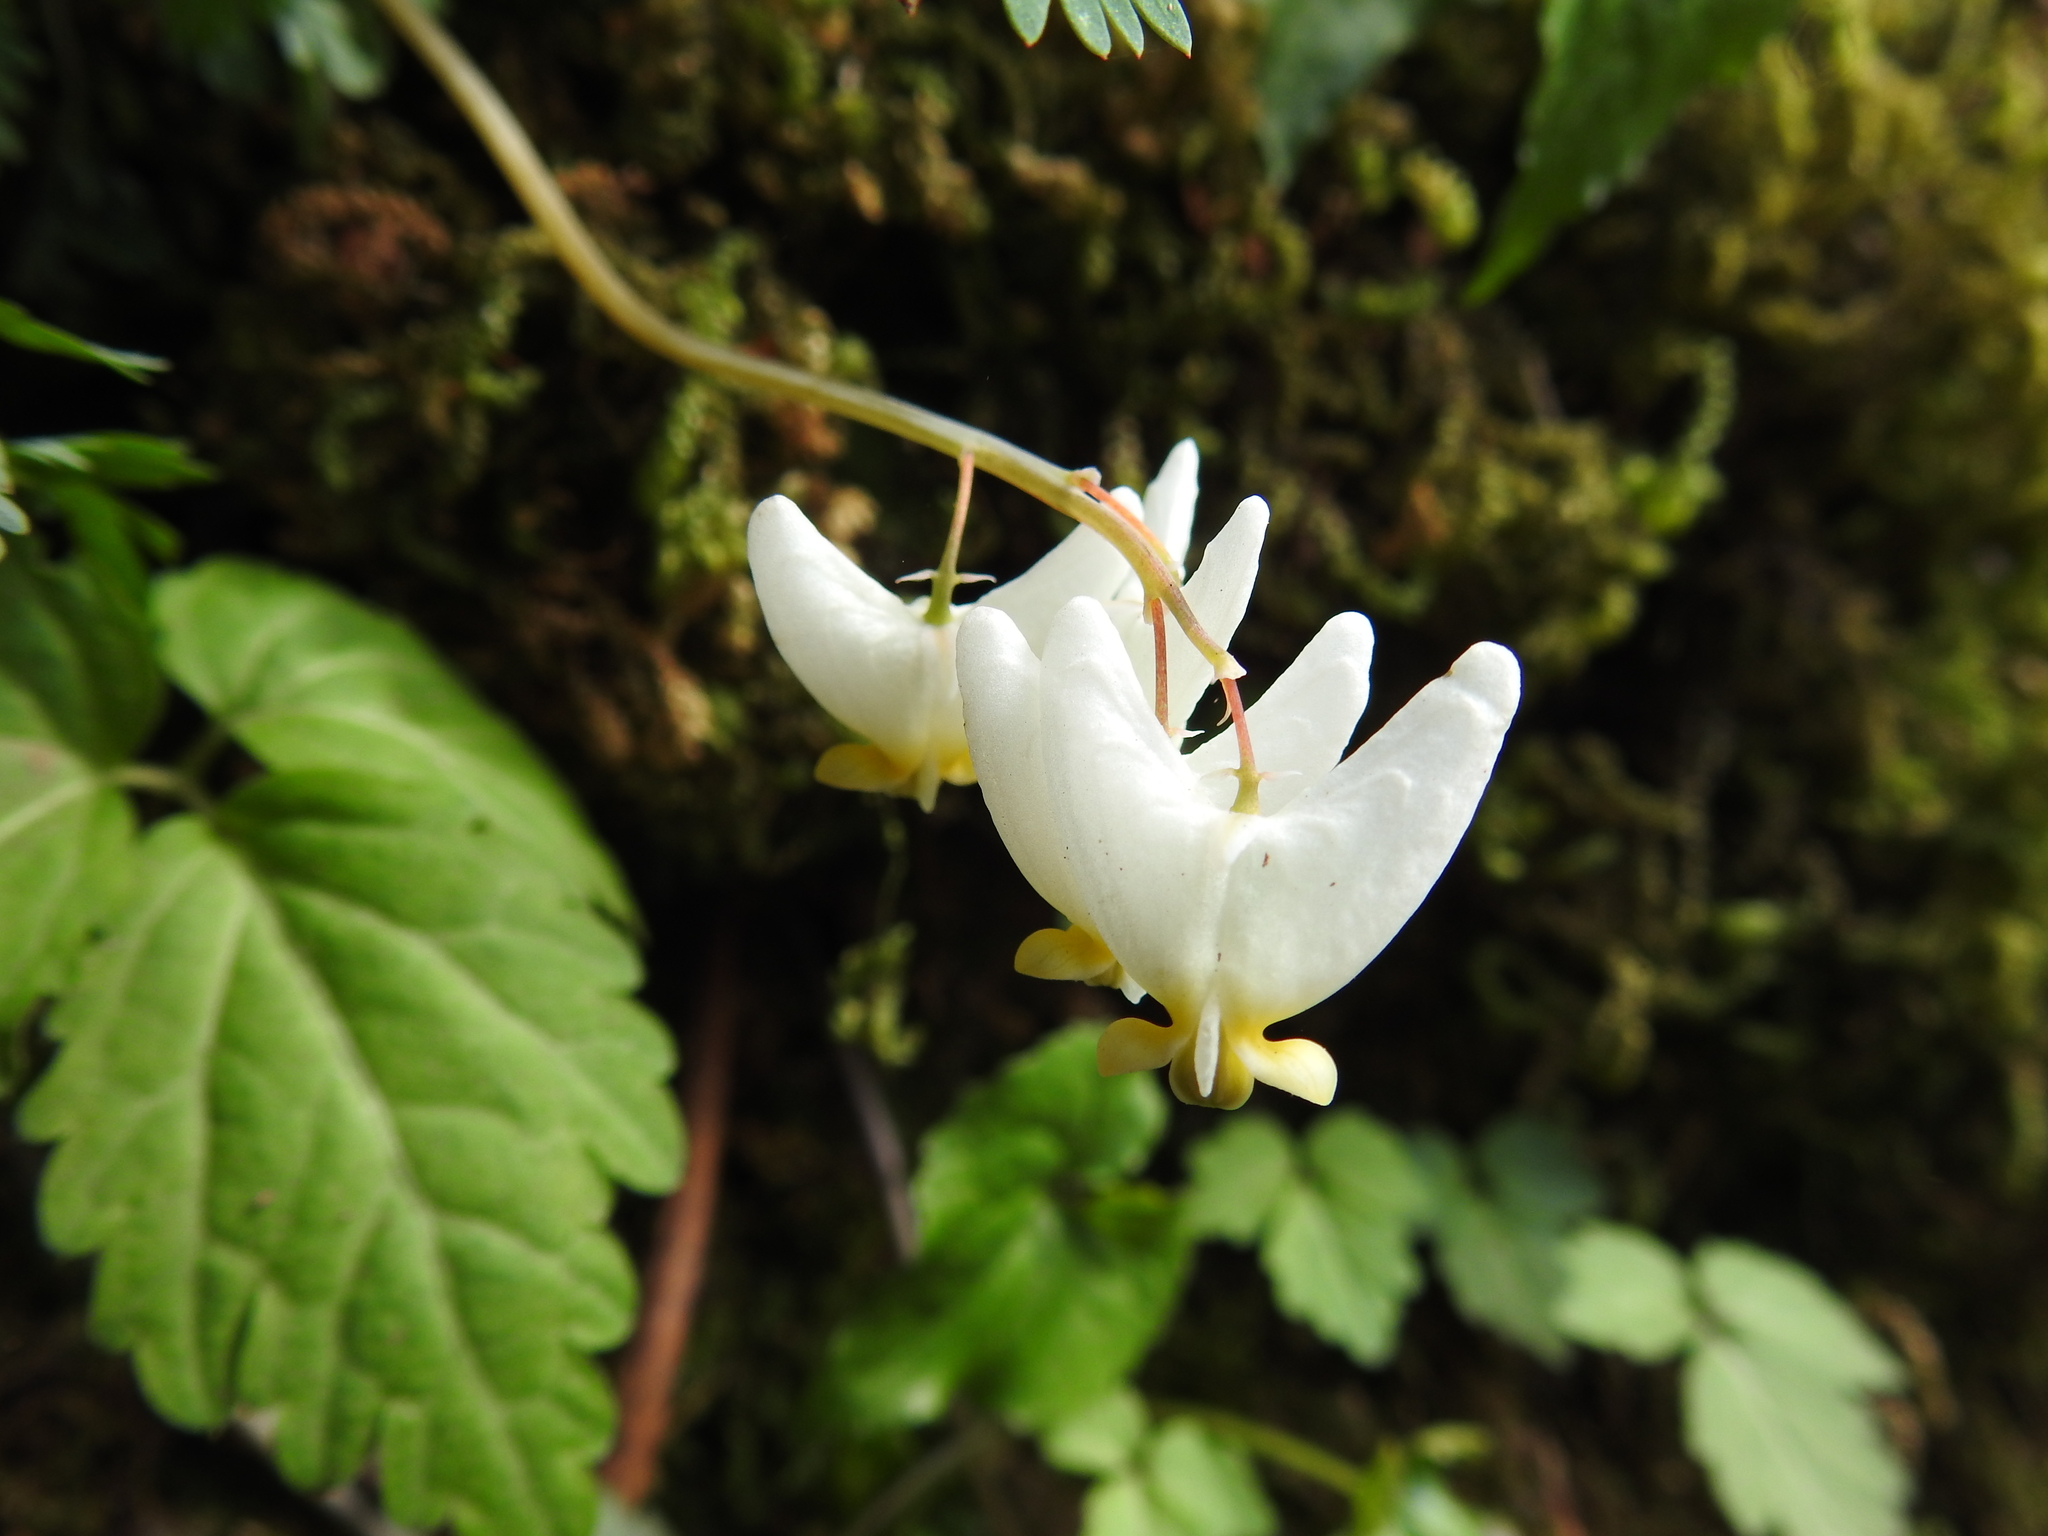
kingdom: Plantae
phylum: Tracheophyta
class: Magnoliopsida
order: Ranunculales
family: Papaveraceae
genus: Dicentra
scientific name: Dicentra cucullaria
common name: Dutchman's breeches
